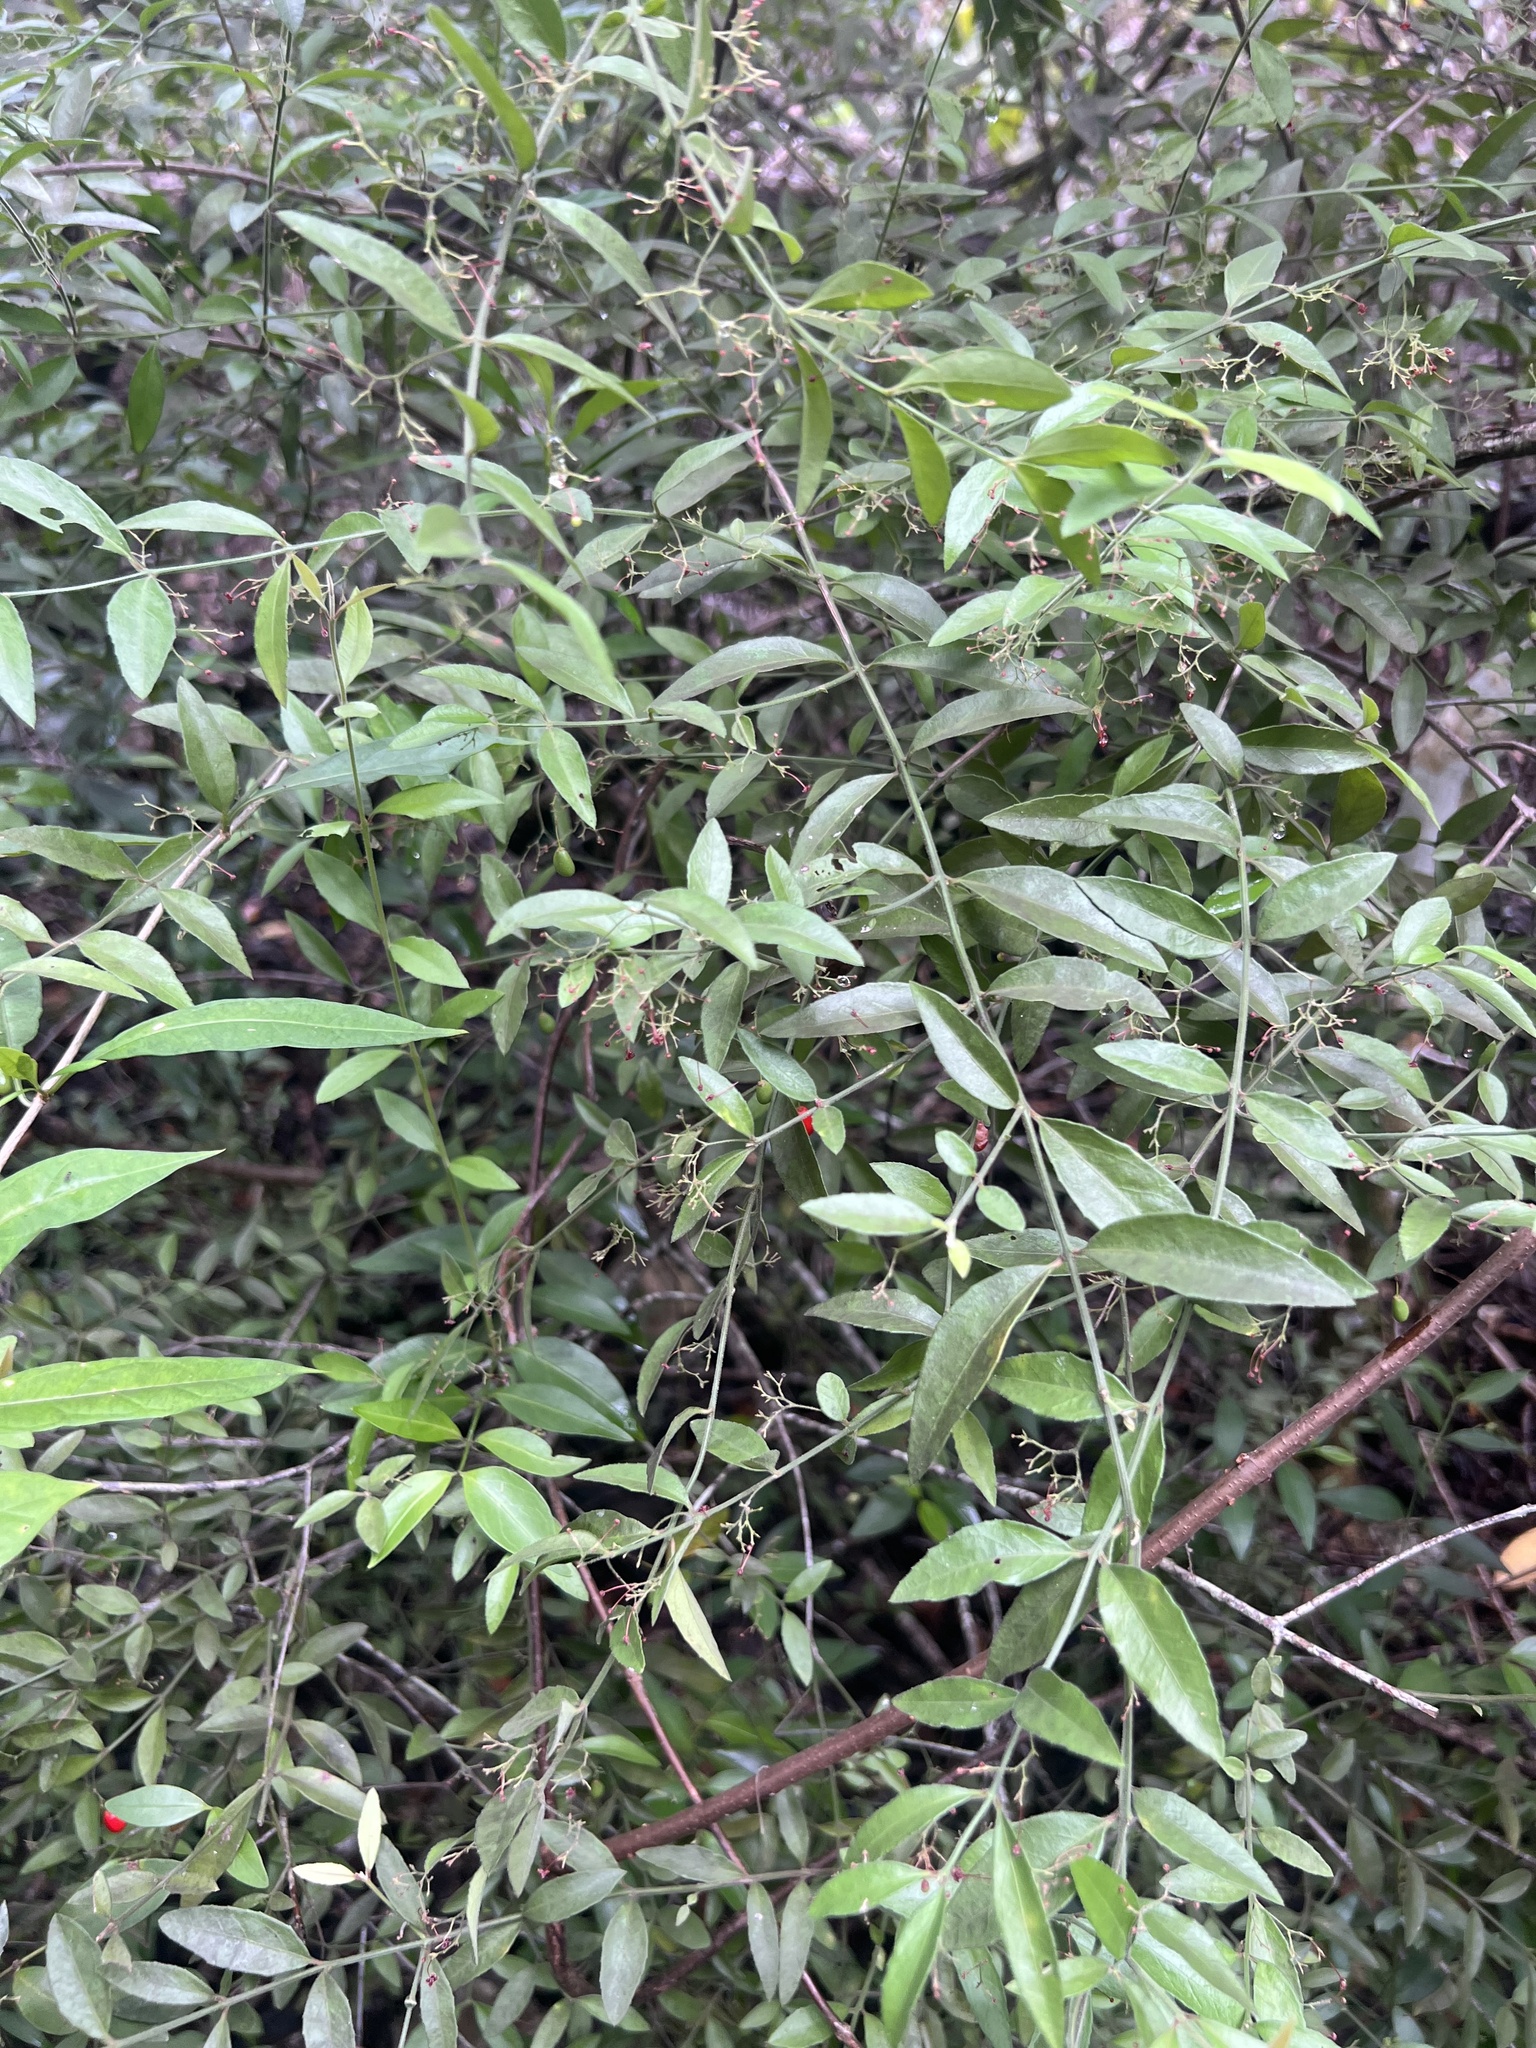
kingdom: Plantae
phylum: Tracheophyta
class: Magnoliopsida
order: Celastrales
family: Celastraceae
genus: Crossopetalum
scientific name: Crossopetalum uragoga
